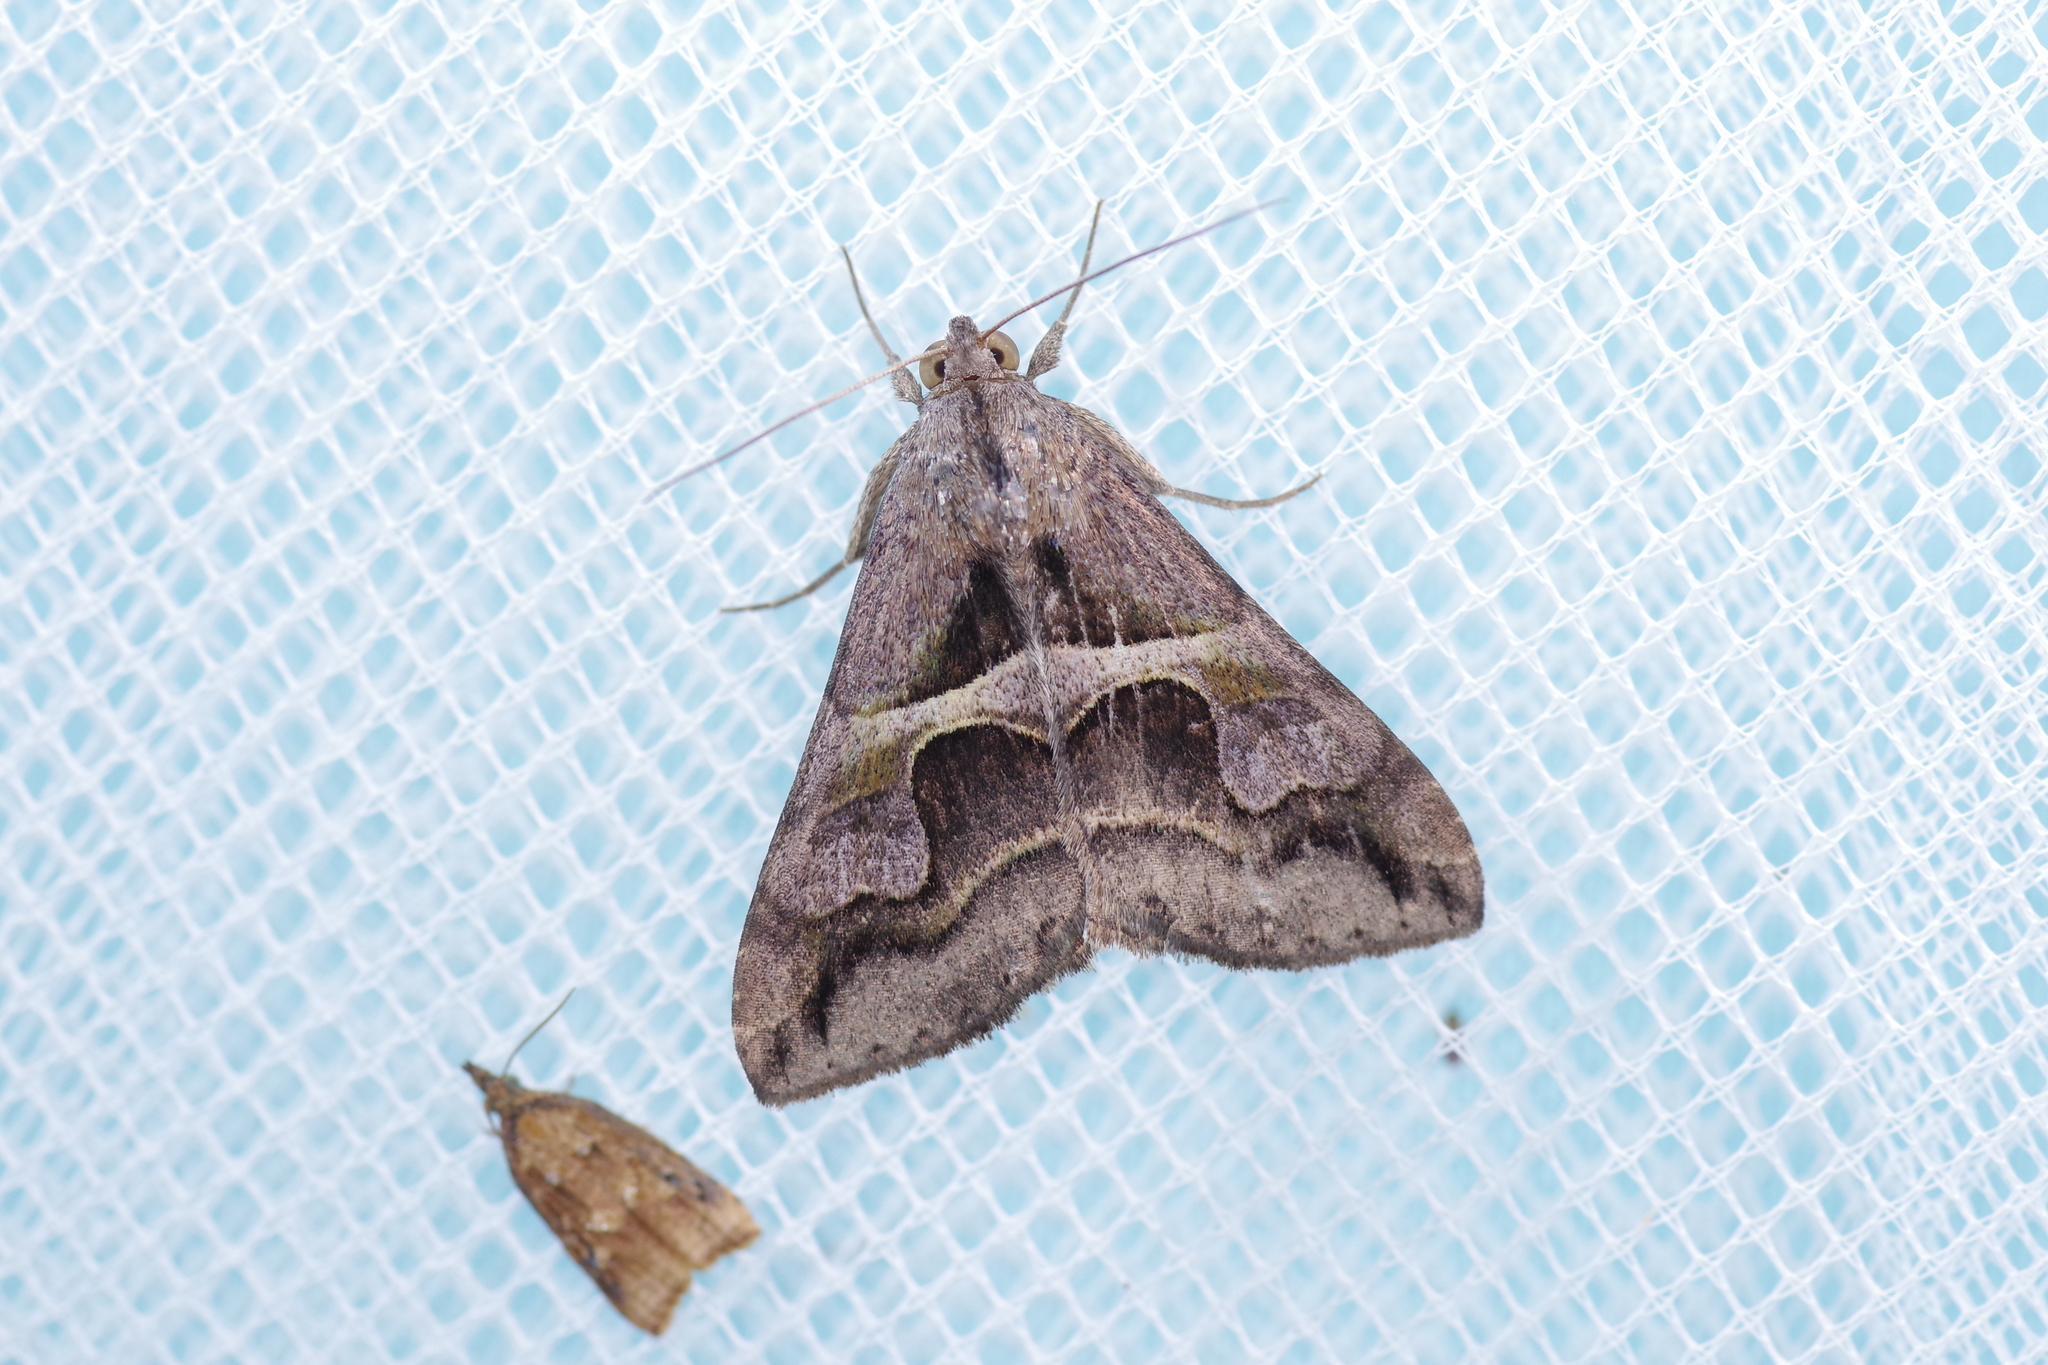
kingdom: Animalia
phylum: Arthropoda
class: Insecta
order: Lepidoptera
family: Erebidae
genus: Melipotis
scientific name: Melipotis cellaris
